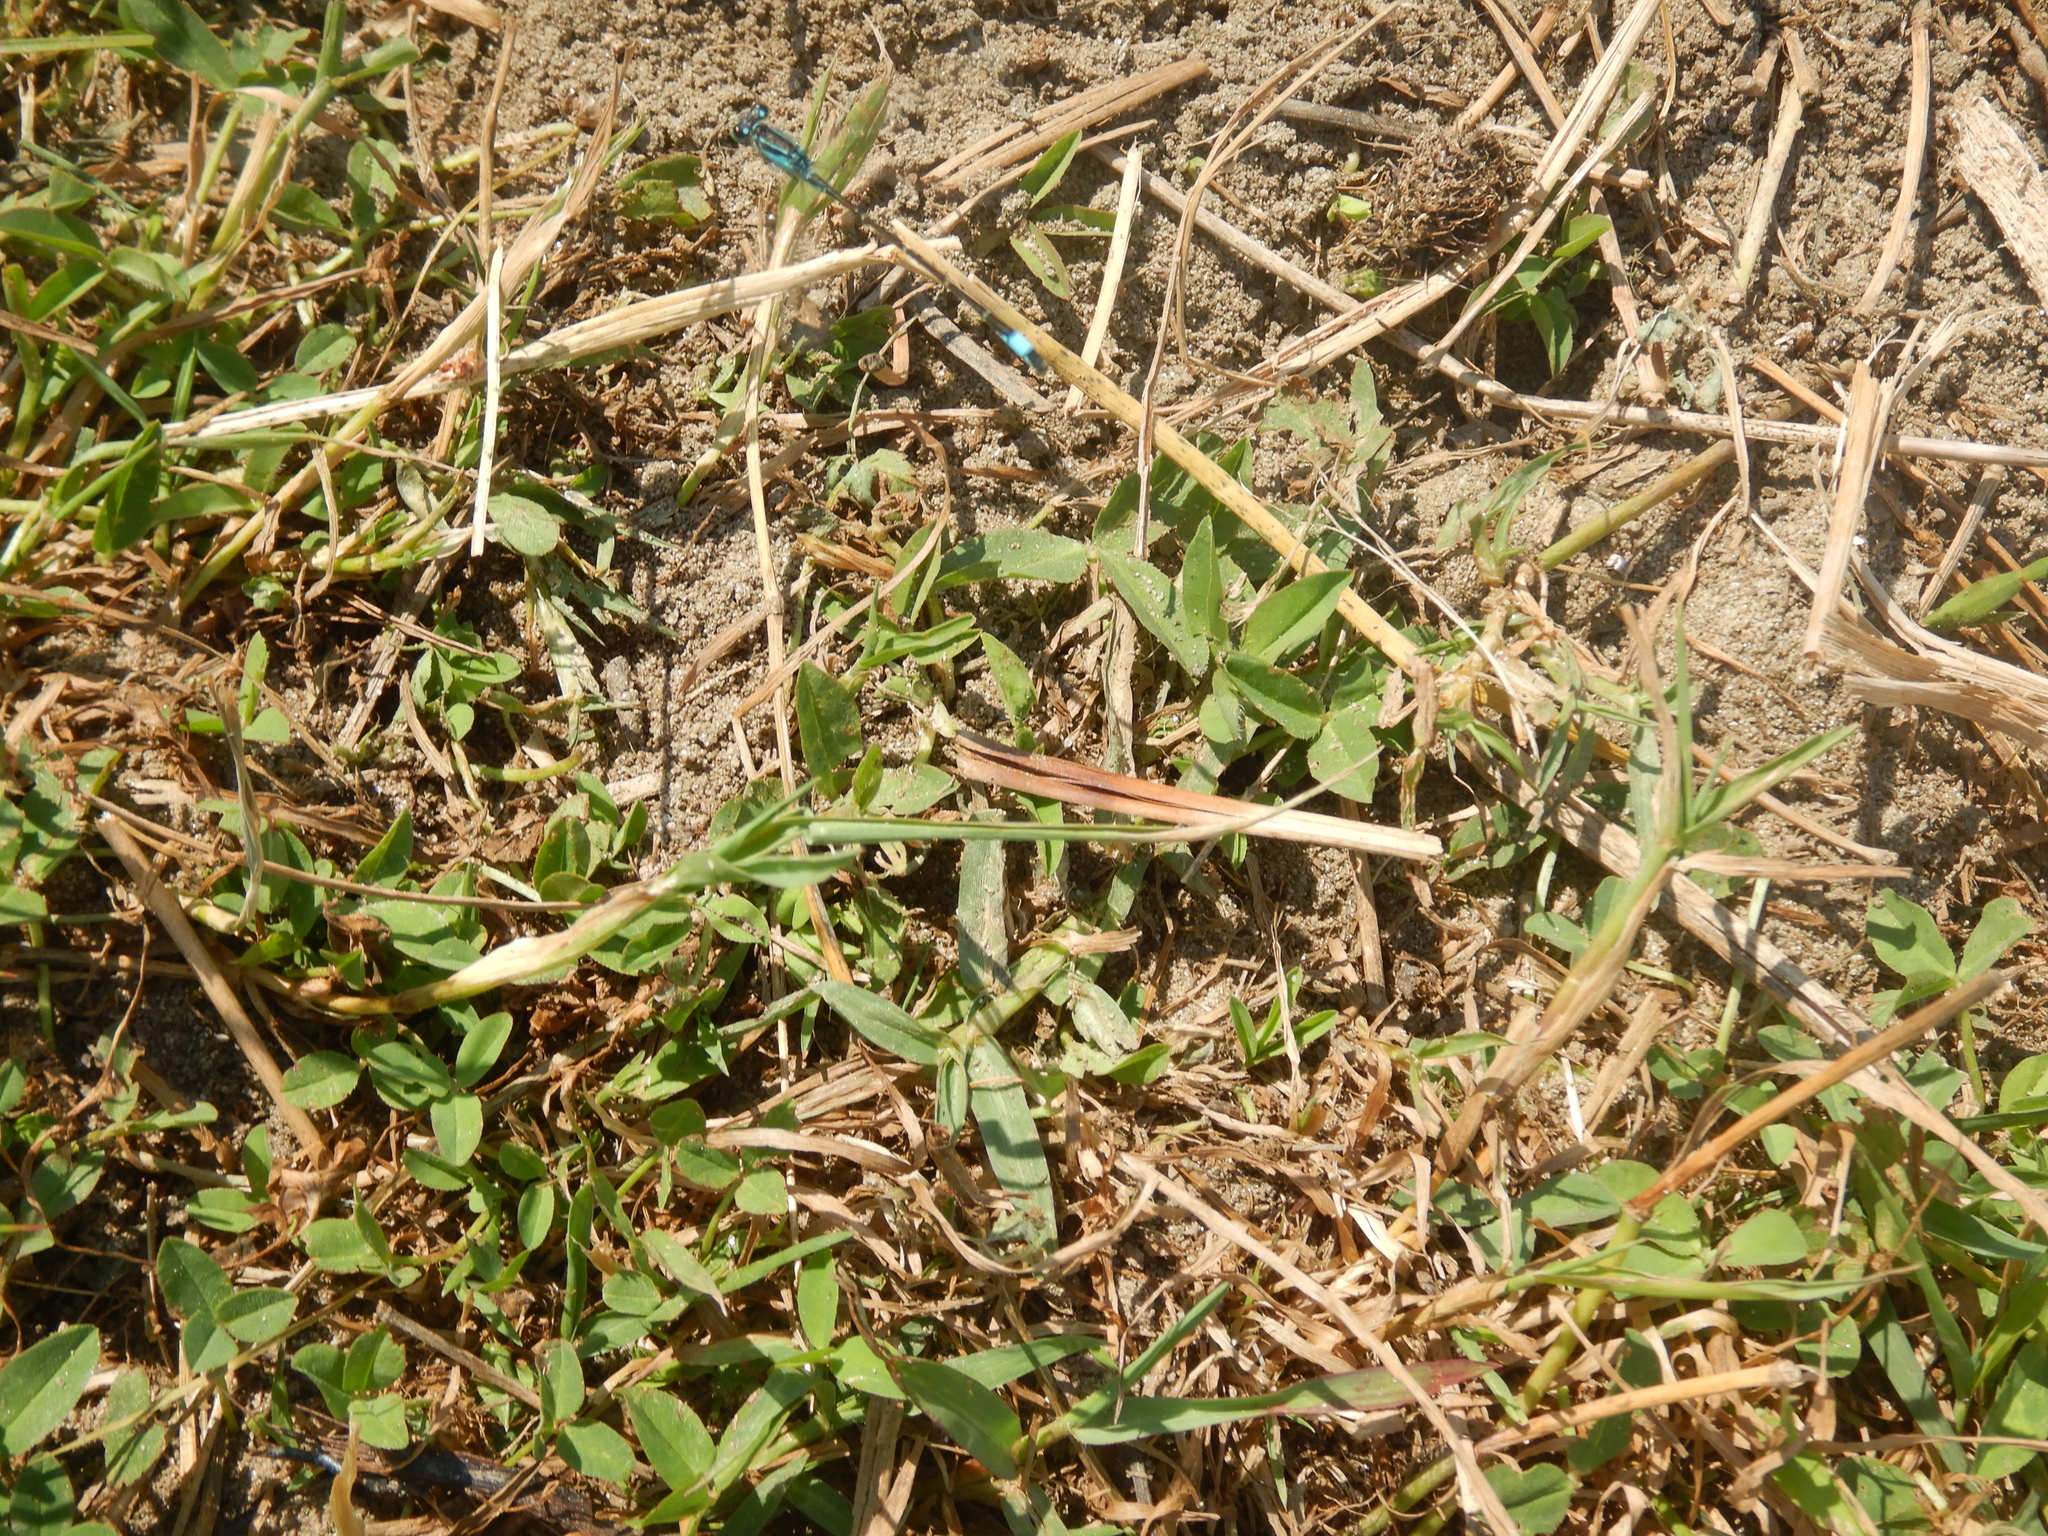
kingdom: Animalia
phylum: Arthropoda
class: Insecta
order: Odonata
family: Coenagrionidae
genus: Ischnura
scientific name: Ischnura elegans
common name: Blue-tailed damselfly
